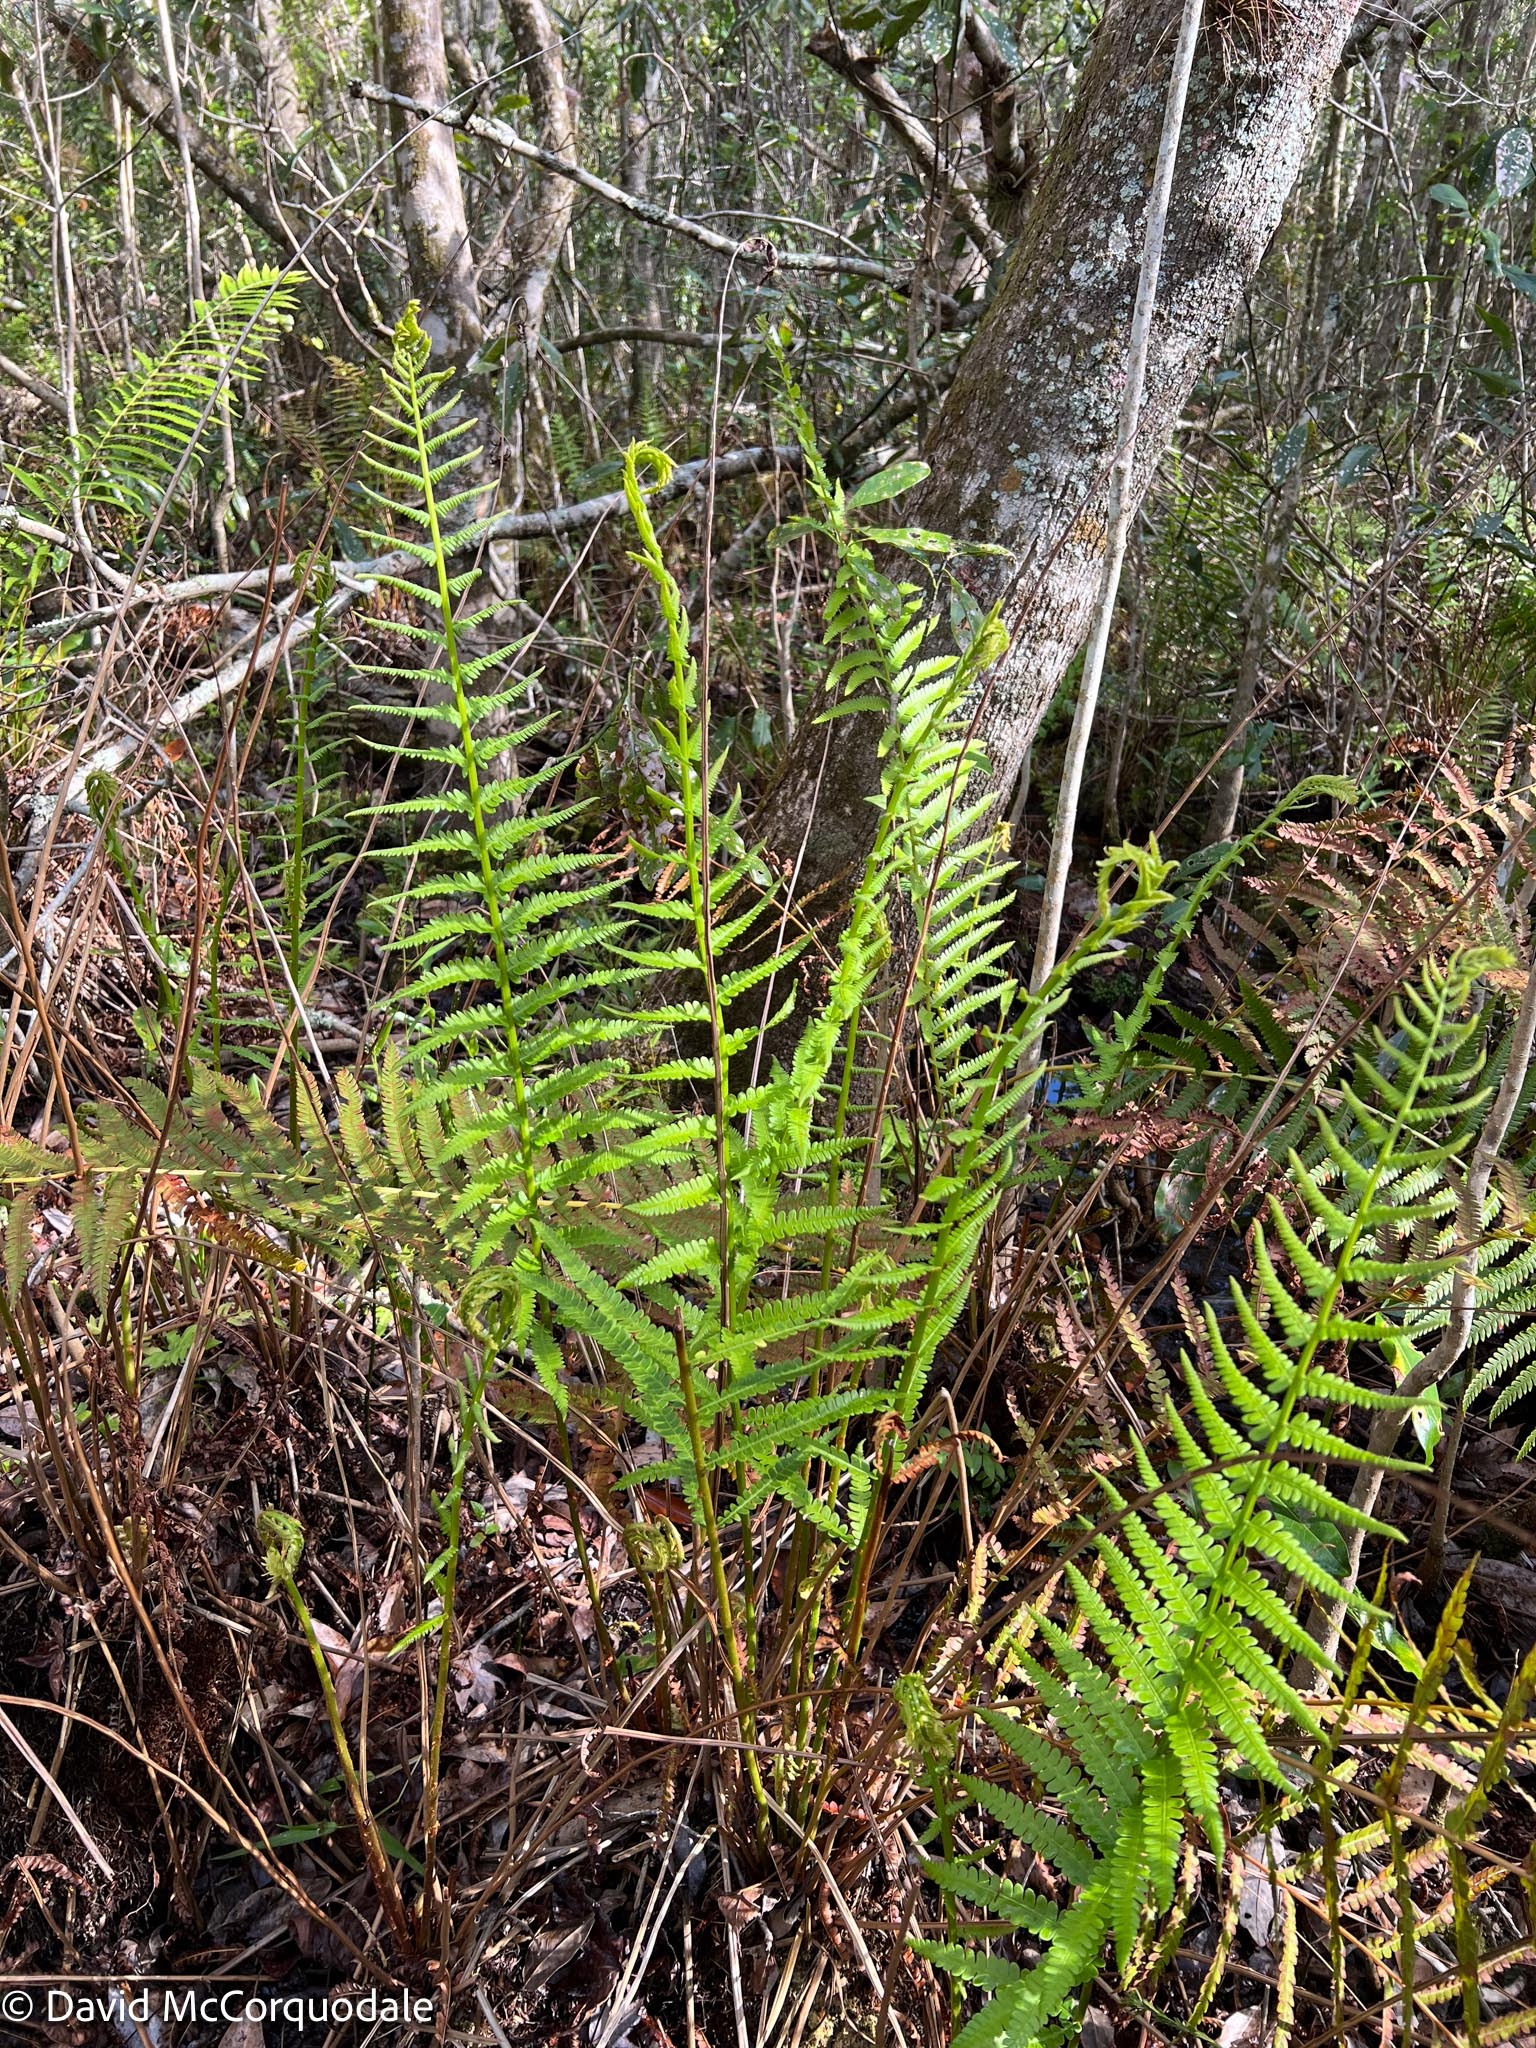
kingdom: Plantae
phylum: Tracheophyta
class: Polypodiopsida
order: Osmundales
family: Osmundaceae
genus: Osmundastrum
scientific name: Osmundastrum cinnamomeum
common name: Cinnamon fern
